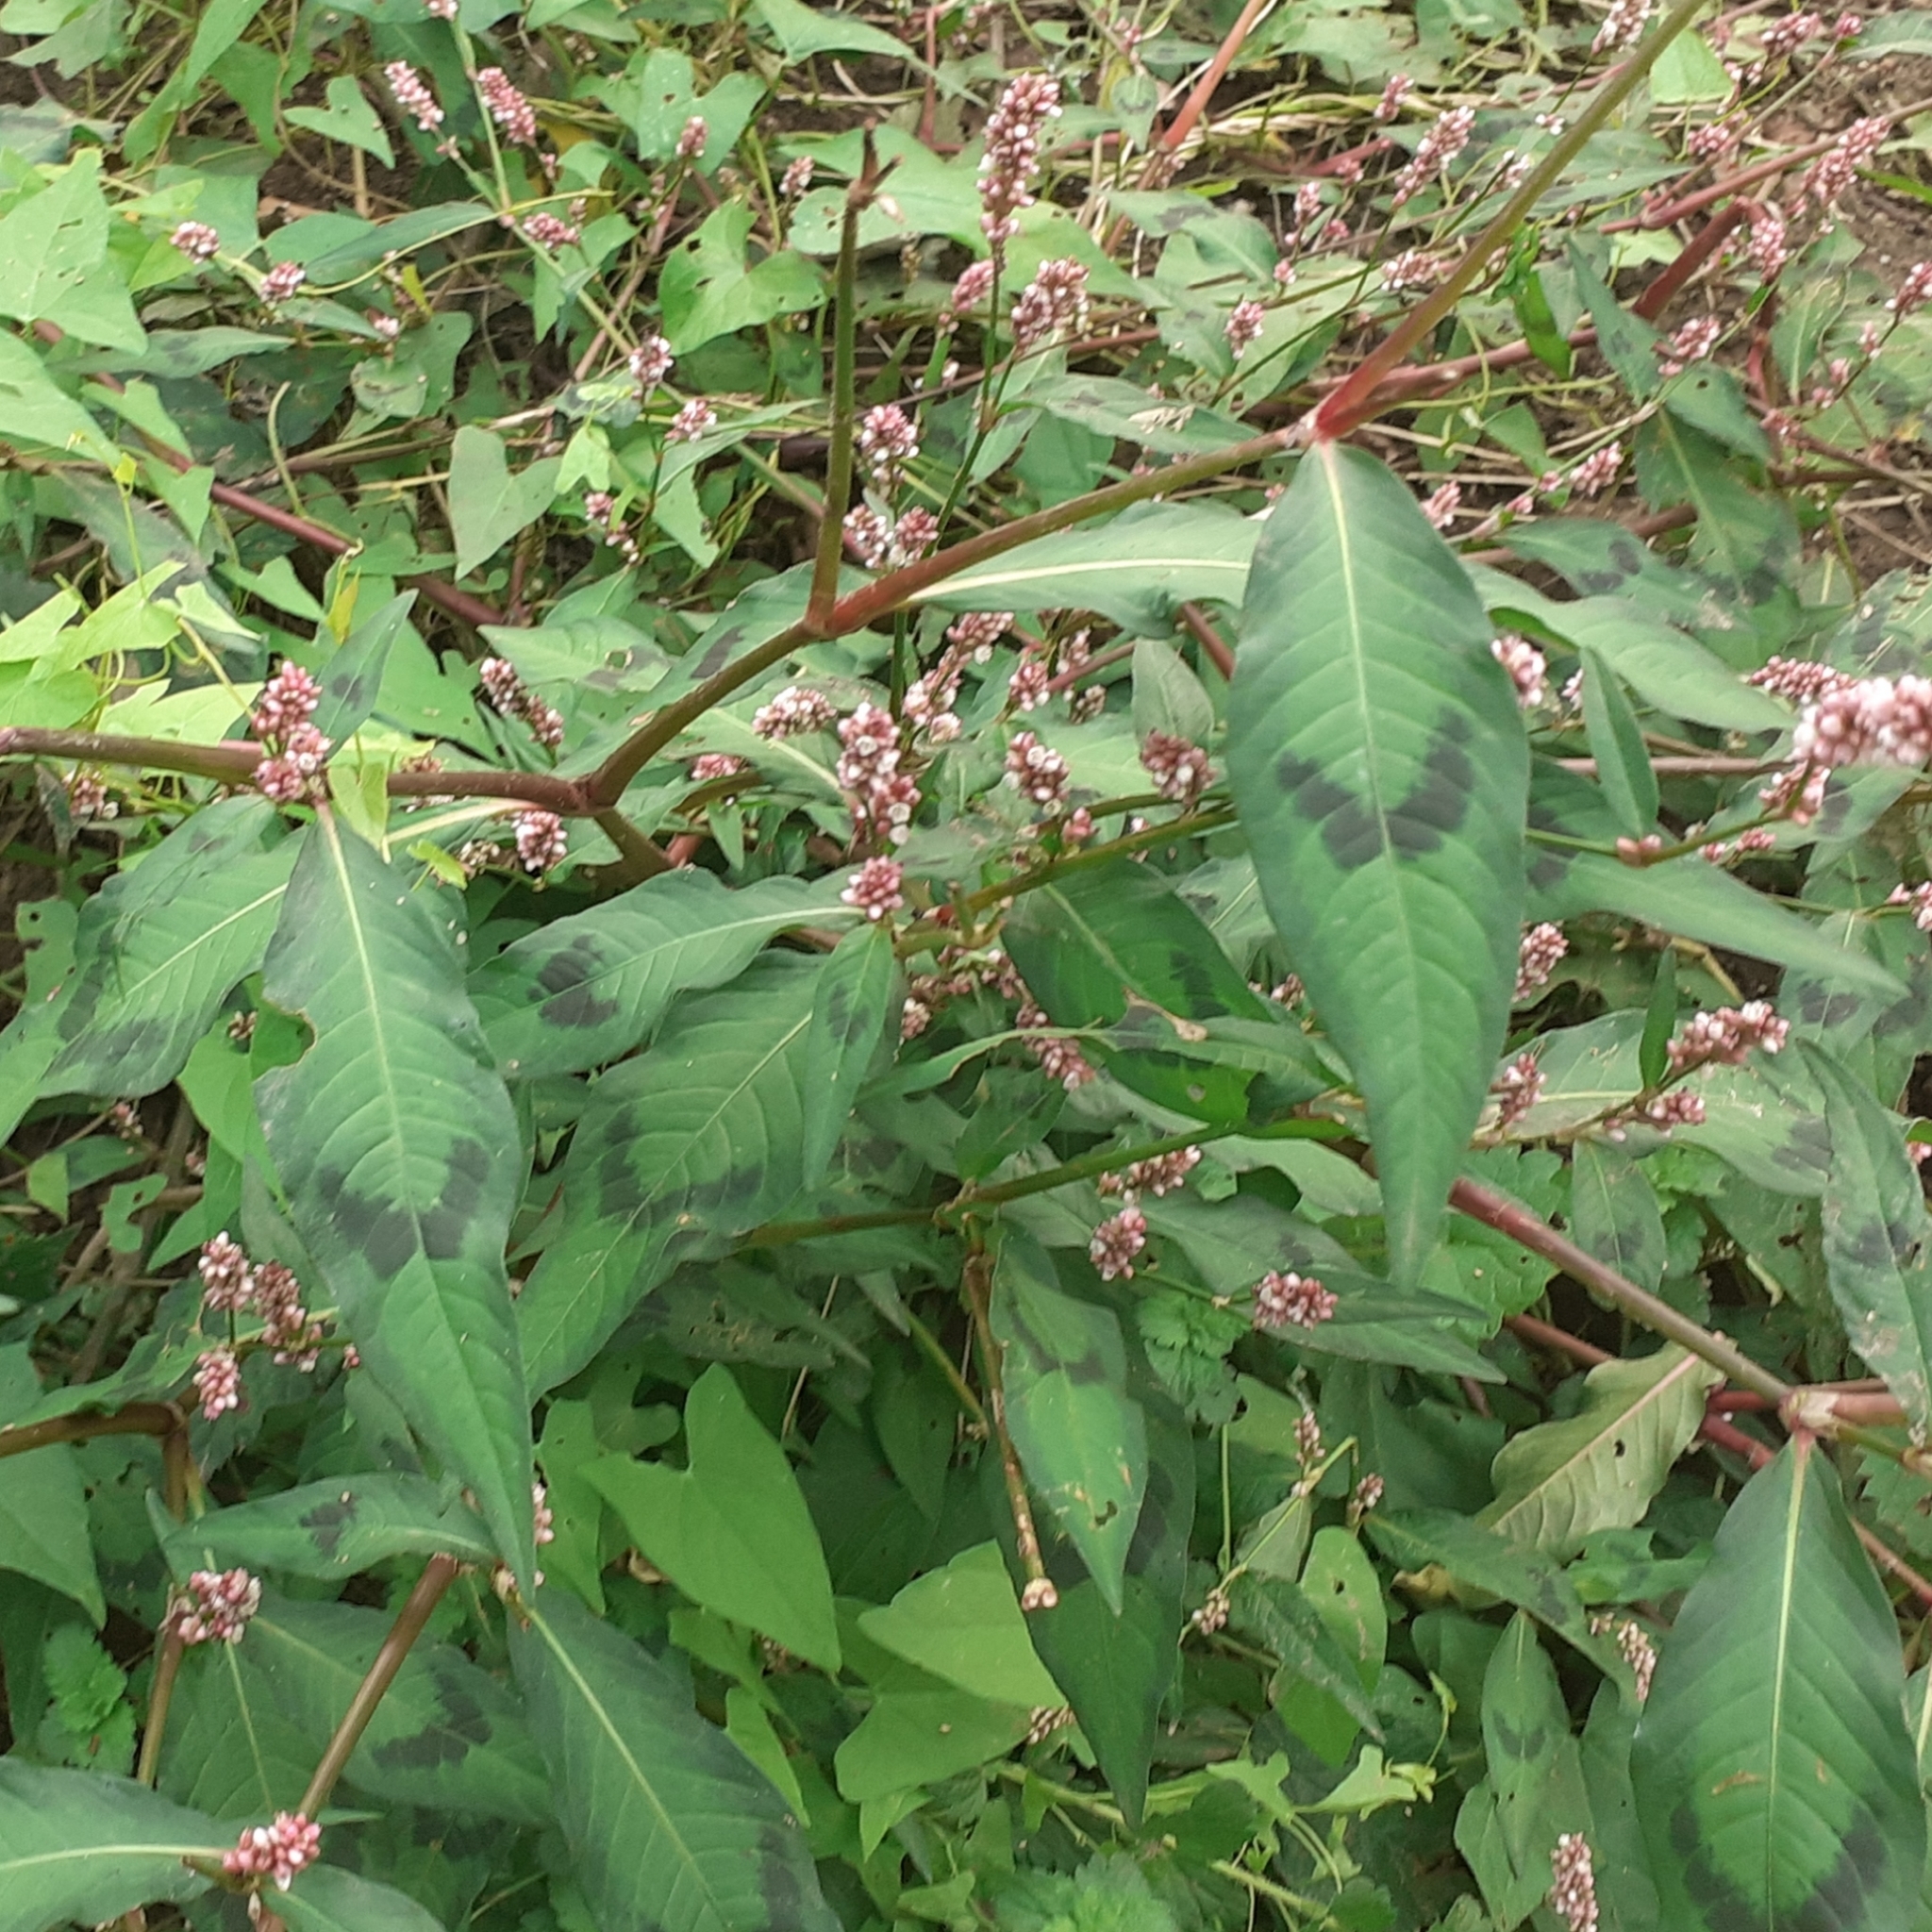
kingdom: Plantae
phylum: Tracheophyta
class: Magnoliopsida
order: Caryophyllales
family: Polygonaceae
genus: Persicaria
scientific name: Persicaria maculosa
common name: Redshank
